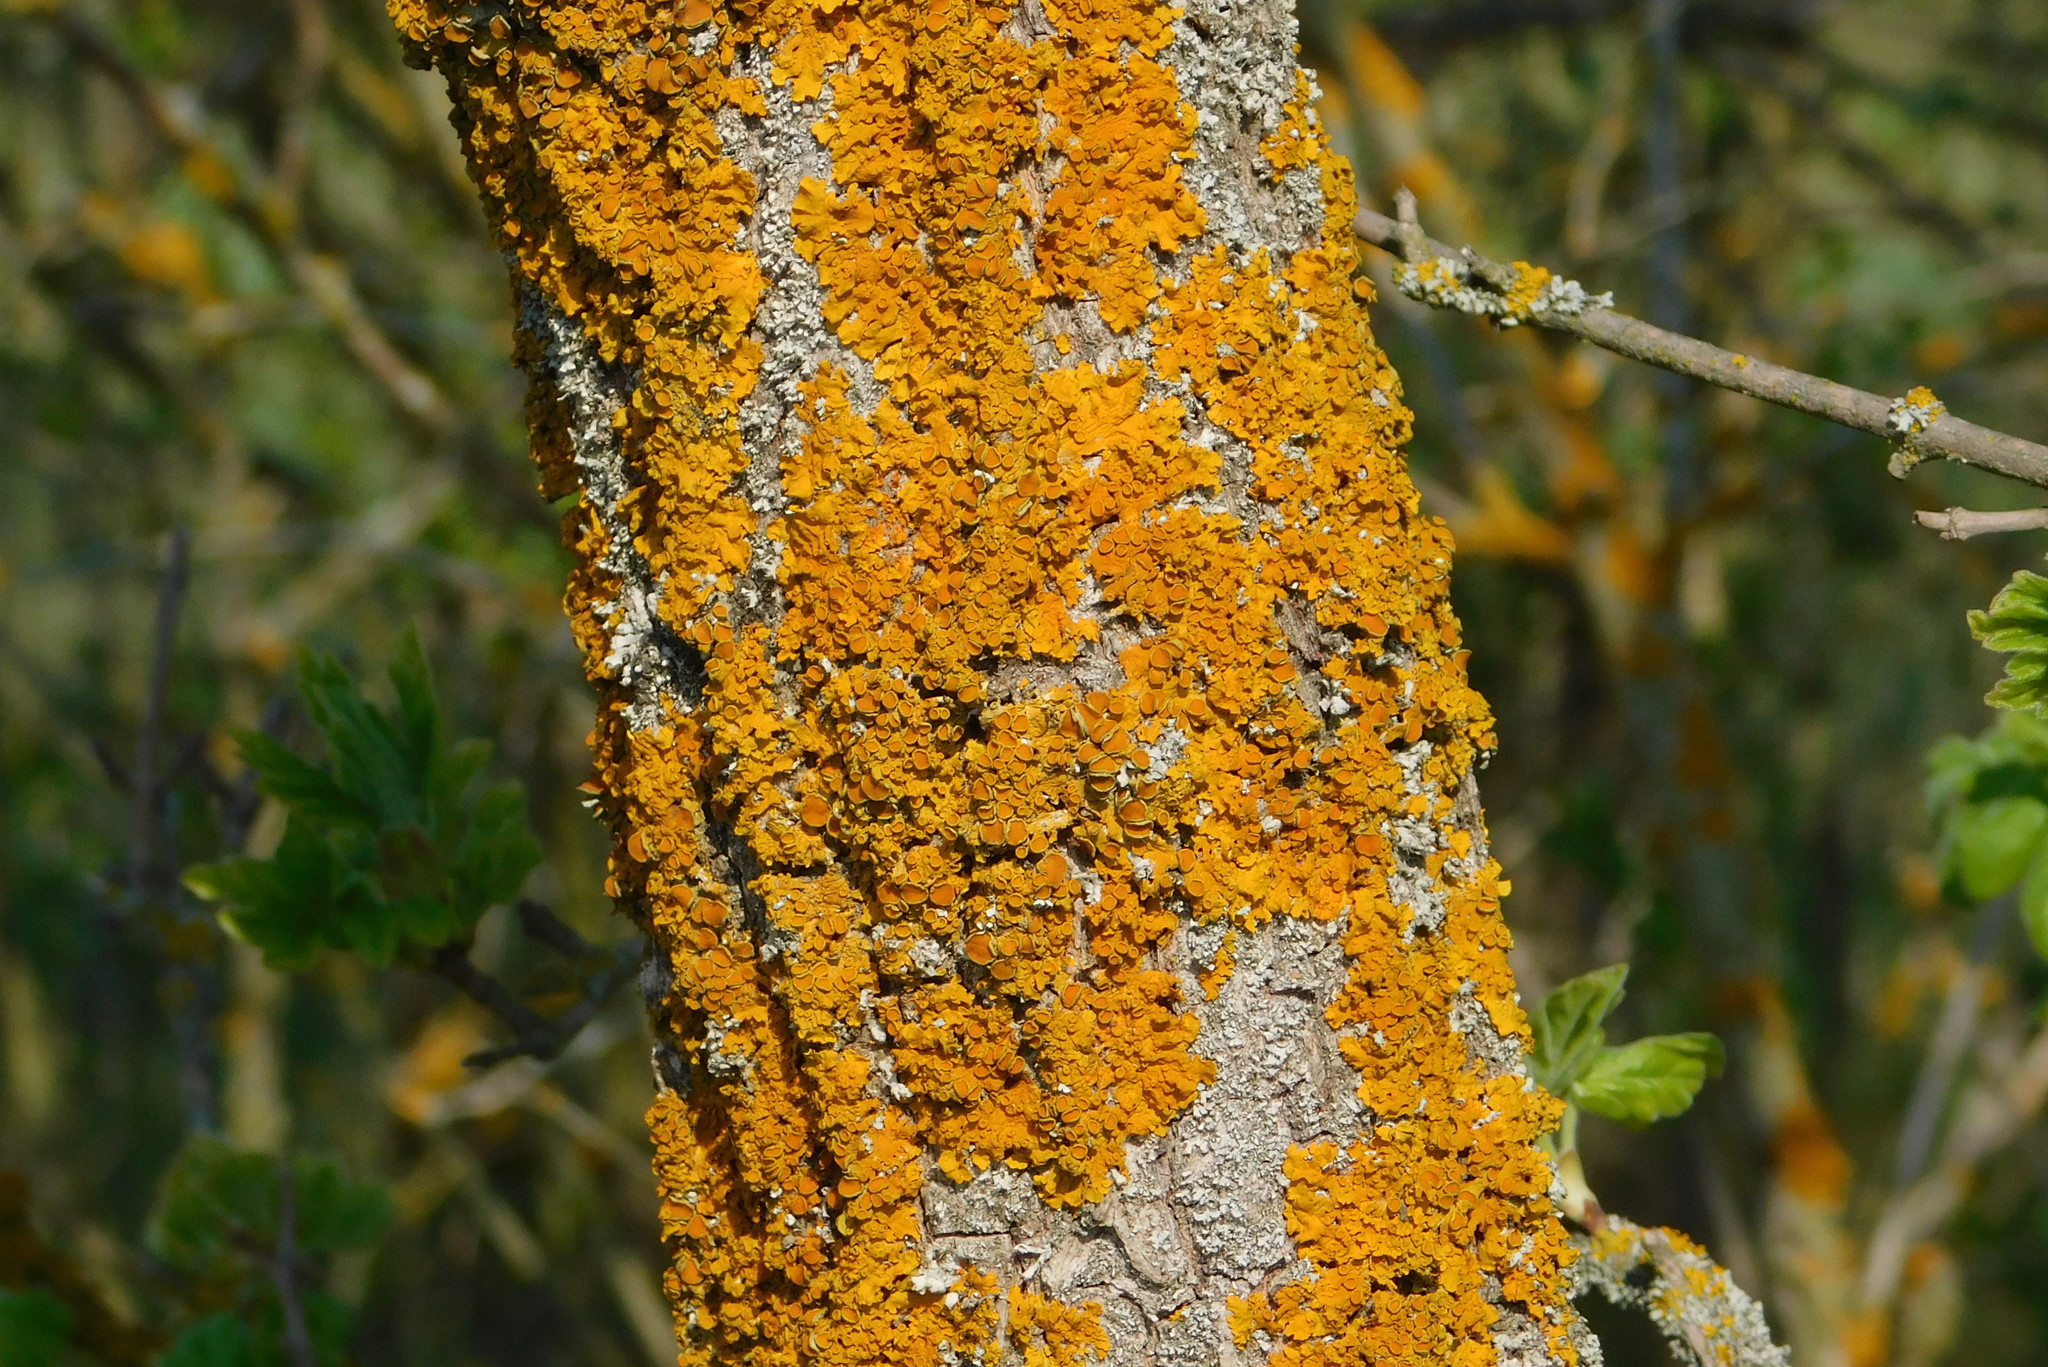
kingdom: Fungi
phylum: Ascomycota
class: Lecanoromycetes
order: Teloschistales
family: Teloschistaceae
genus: Xanthoria
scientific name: Xanthoria parietina
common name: Common orange lichen
